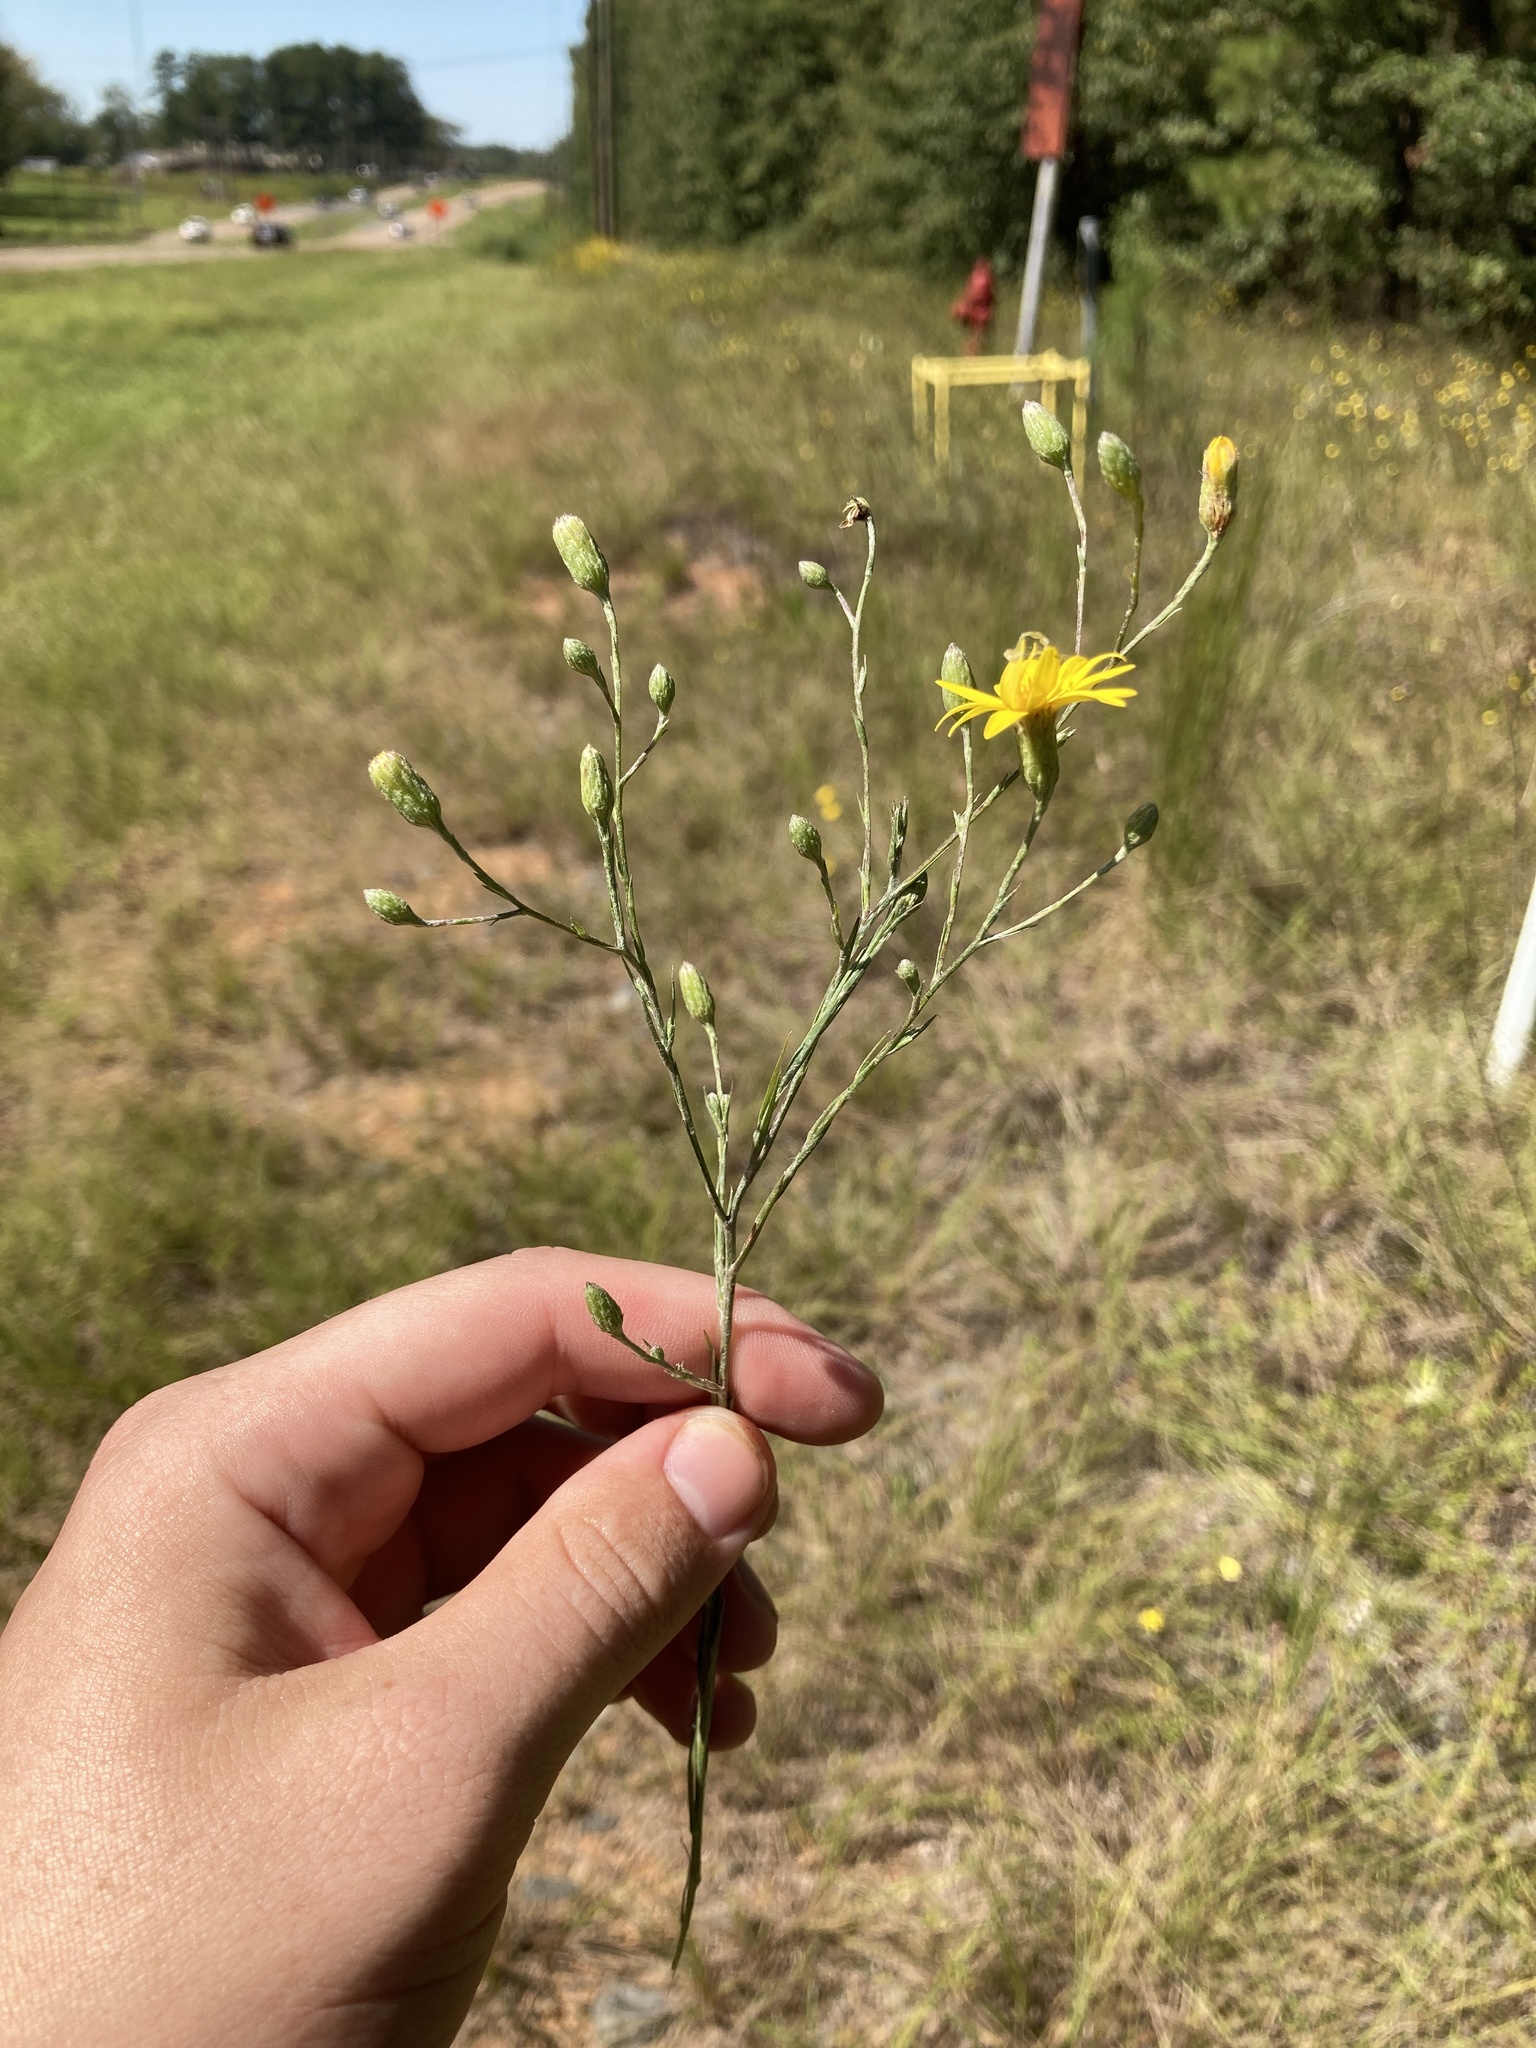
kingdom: Plantae
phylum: Tracheophyta
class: Magnoliopsida
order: Asterales
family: Asteraceae
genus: Pityopsis
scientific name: Pityopsis graminifolia
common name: Grass-leaf golden-aster
